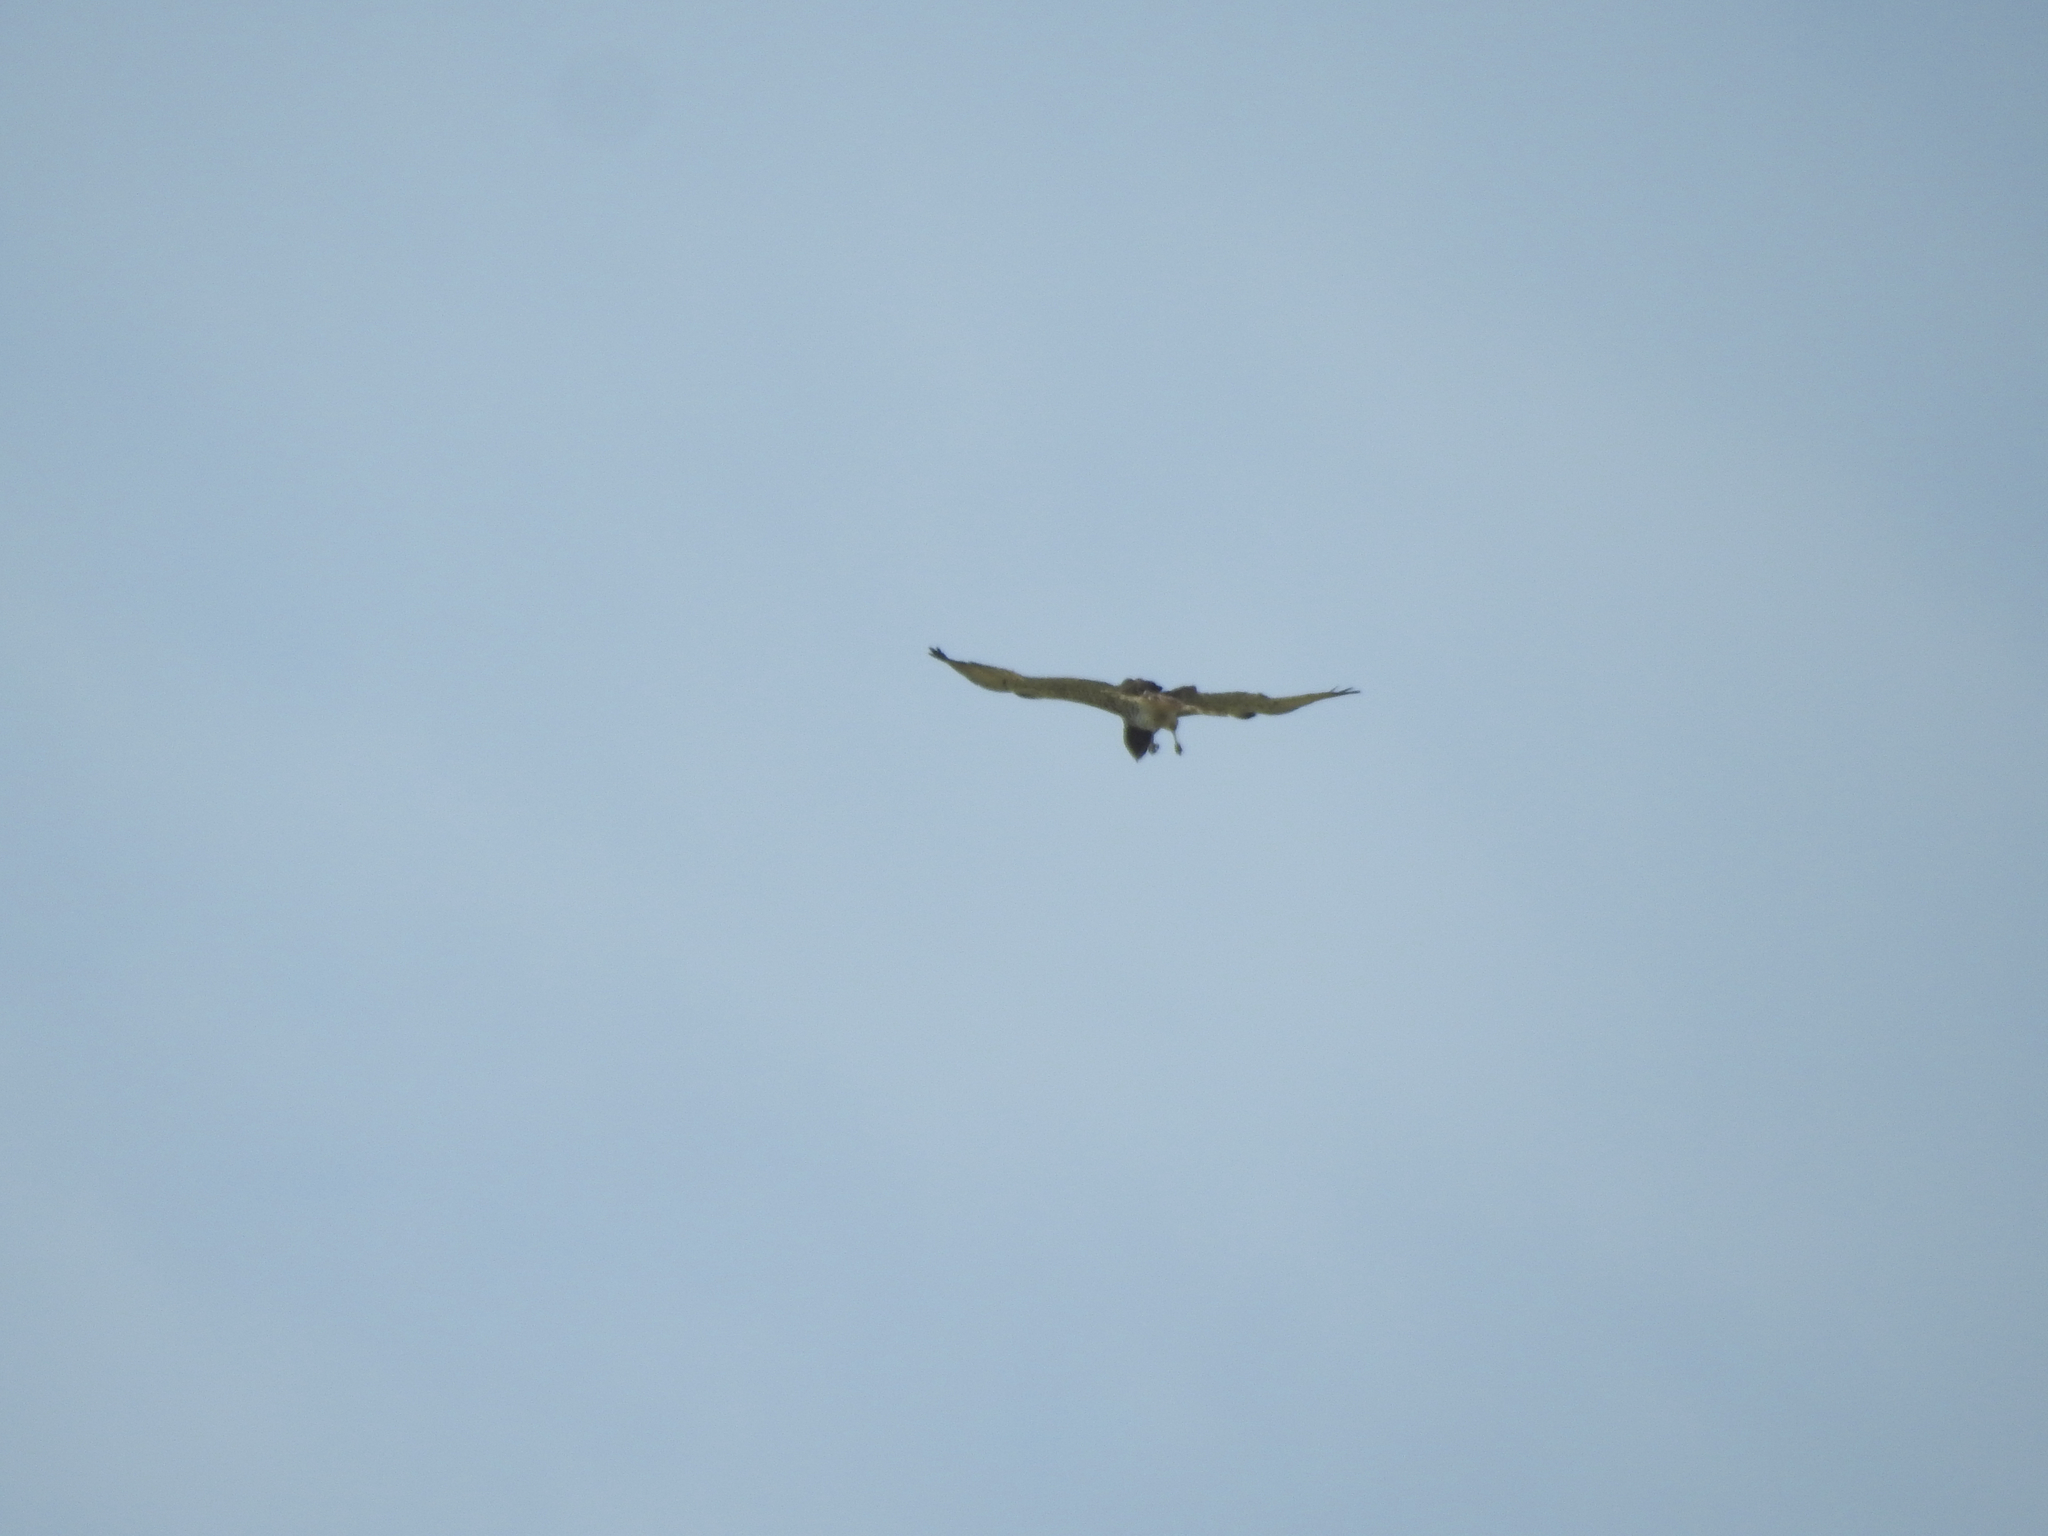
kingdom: Animalia
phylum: Chordata
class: Aves
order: Accipitriformes
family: Accipitridae
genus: Circaetus
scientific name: Circaetus gallicus
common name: Short-toed snake eagle
